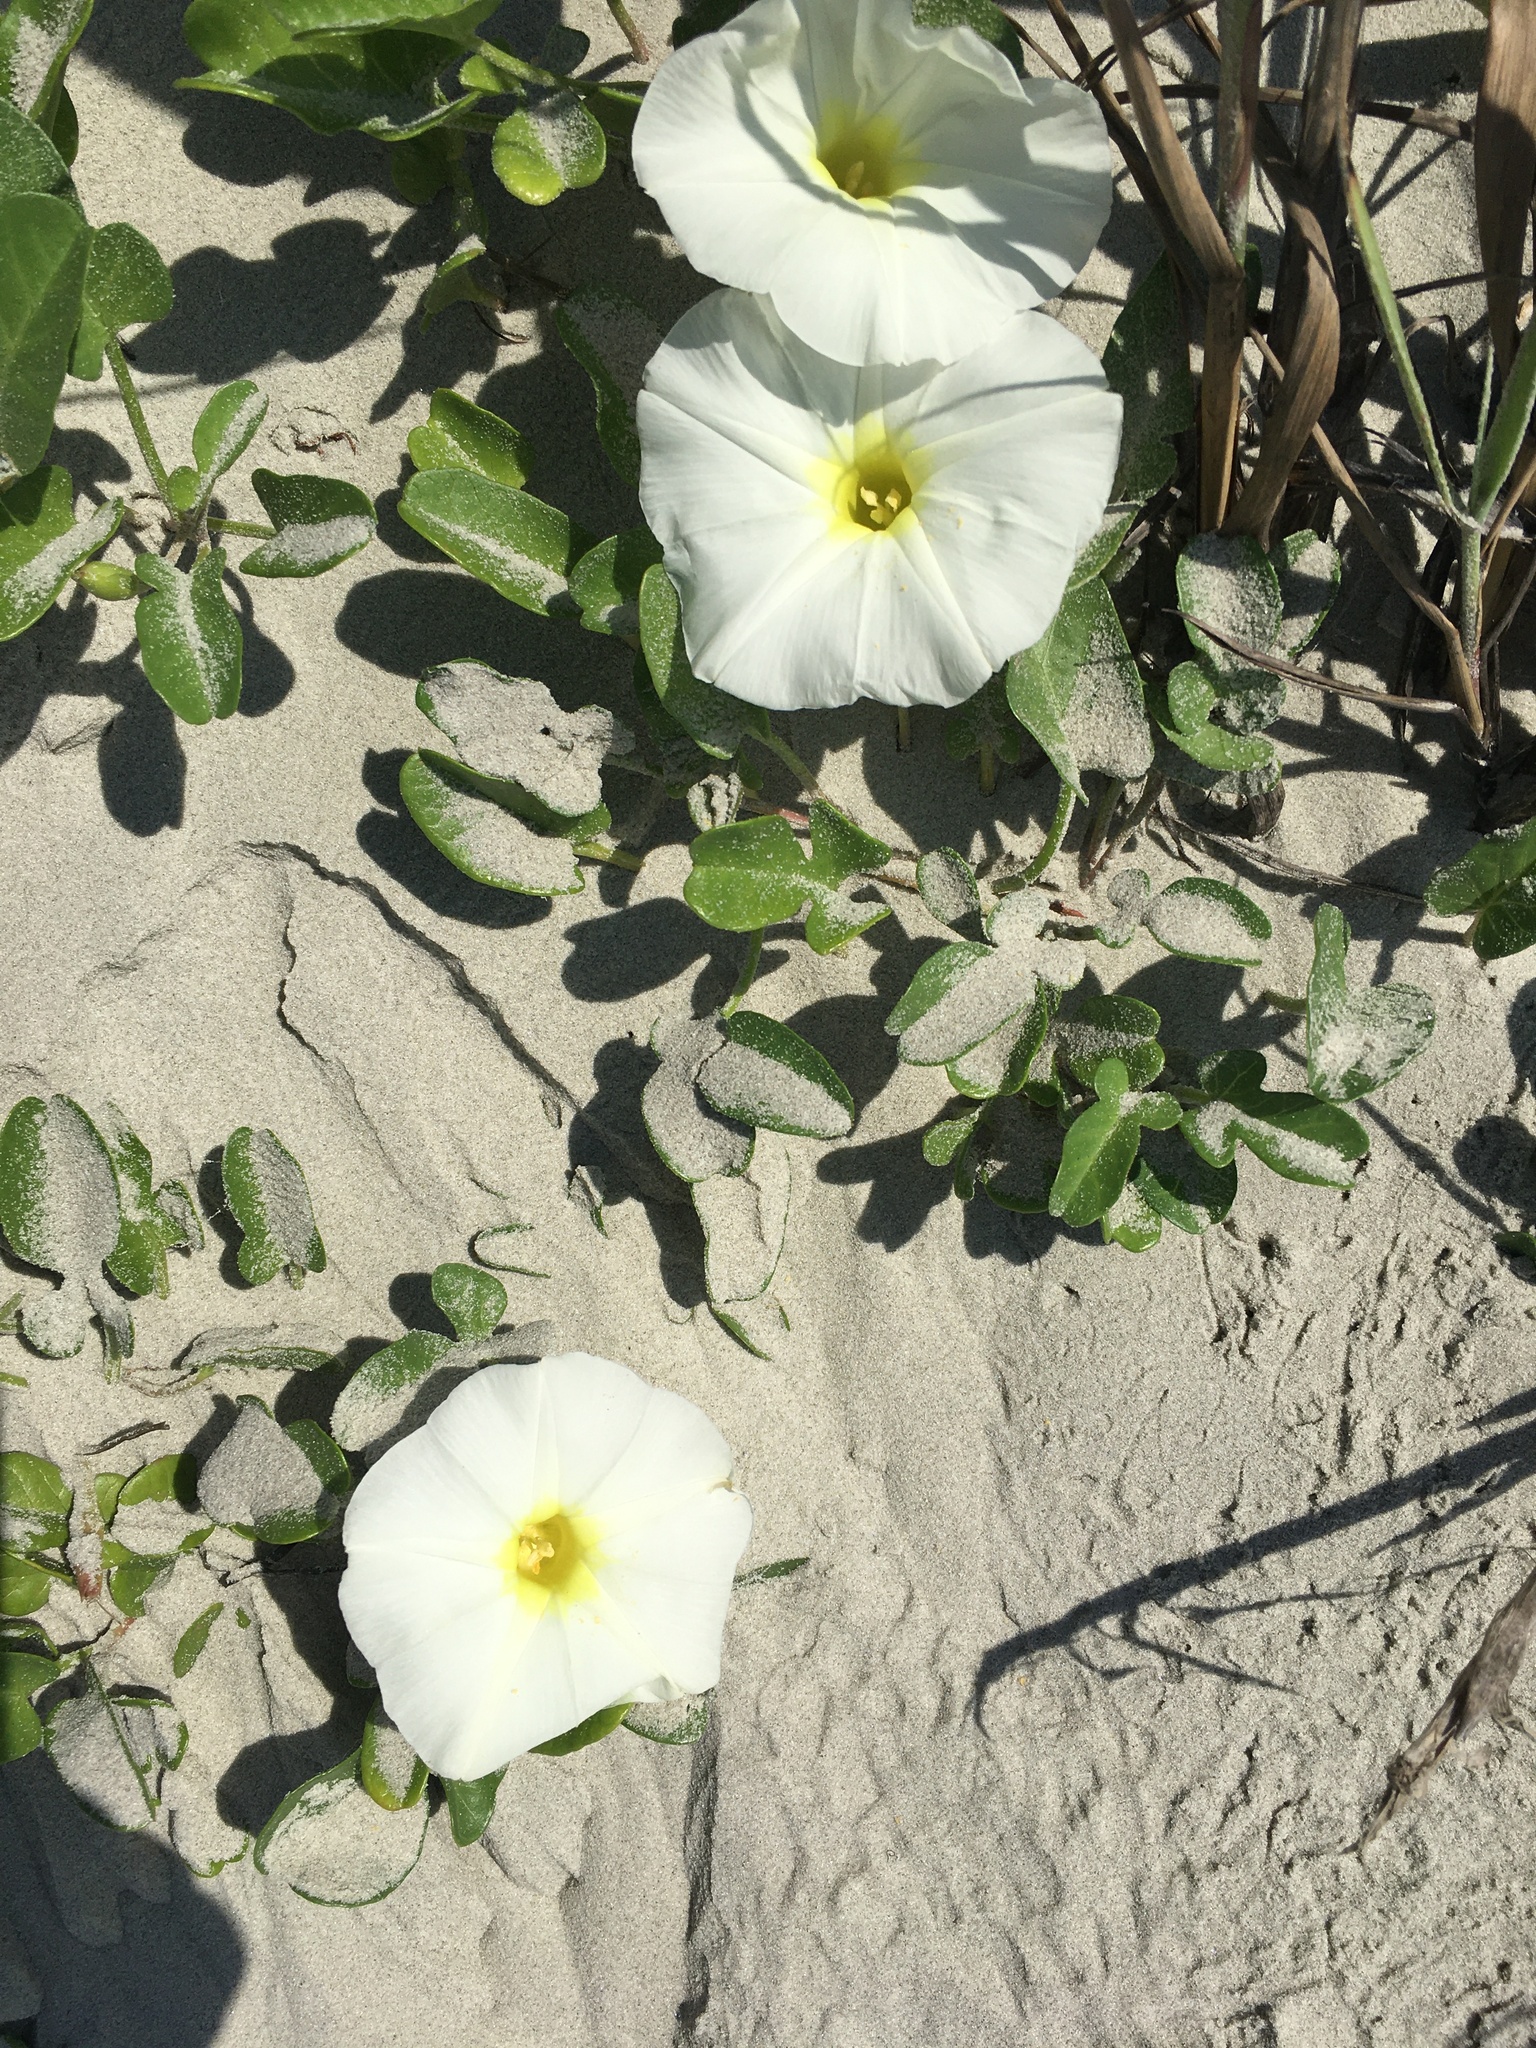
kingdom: Plantae
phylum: Tracheophyta
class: Magnoliopsida
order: Solanales
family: Convolvulaceae
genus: Ipomoea
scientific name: Ipomoea imperati
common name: Fiddle-leaf morning-glory
